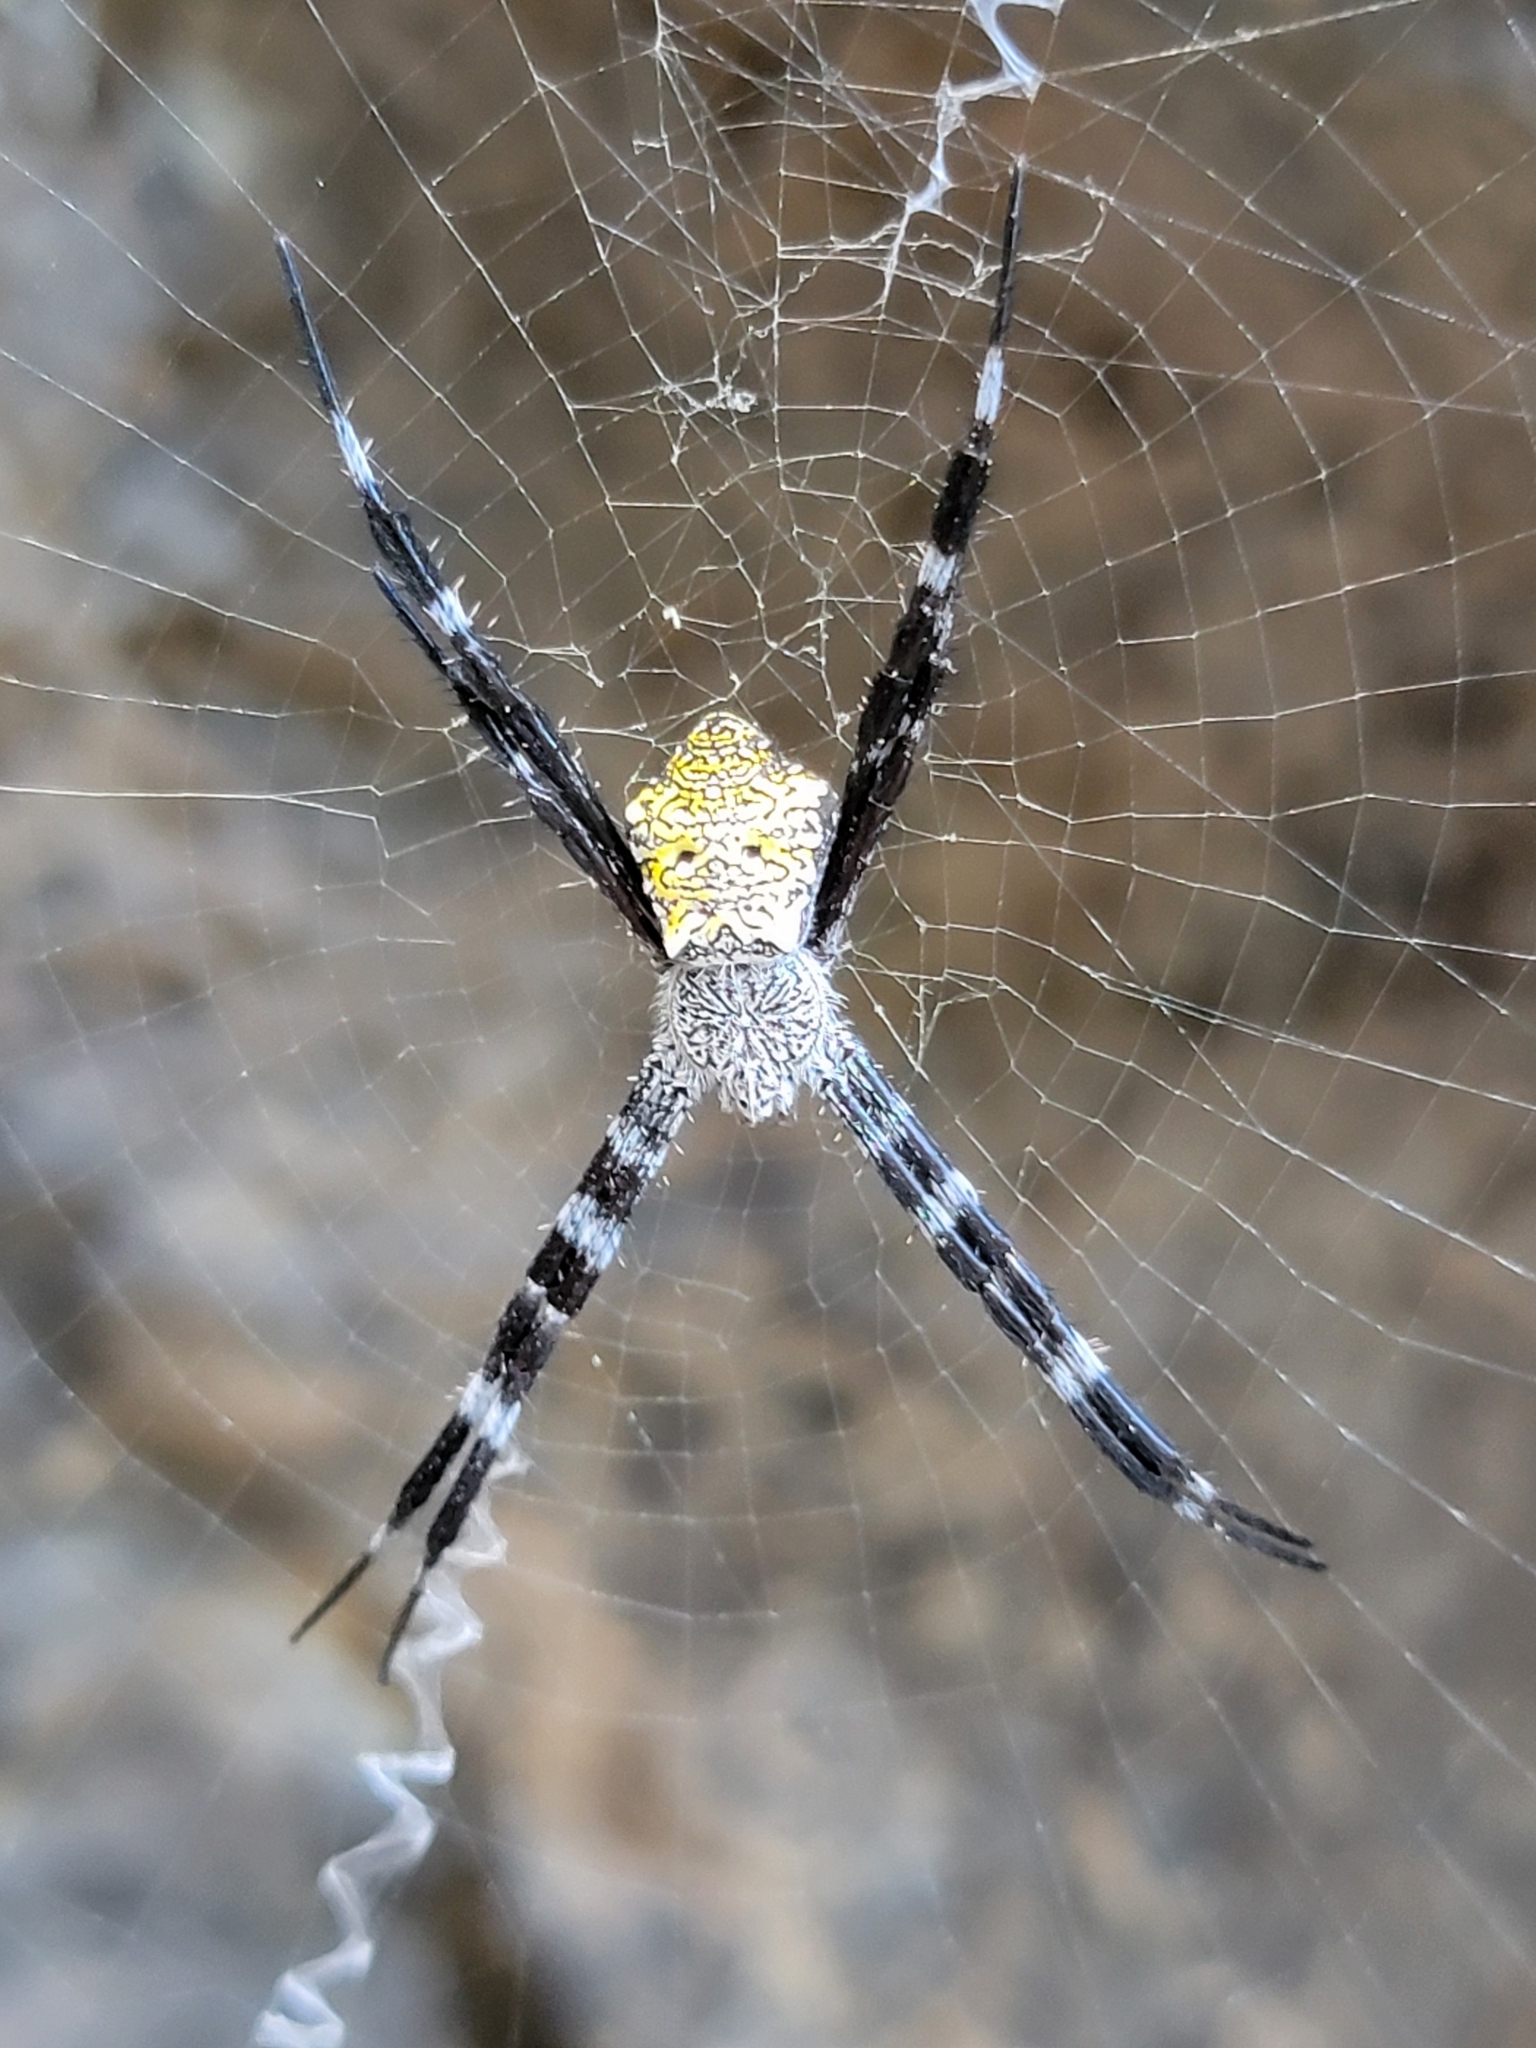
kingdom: Animalia
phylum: Arthropoda
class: Arachnida
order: Araneae
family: Araneidae
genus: Argiope
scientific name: Argiope appensa
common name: Garden spider
